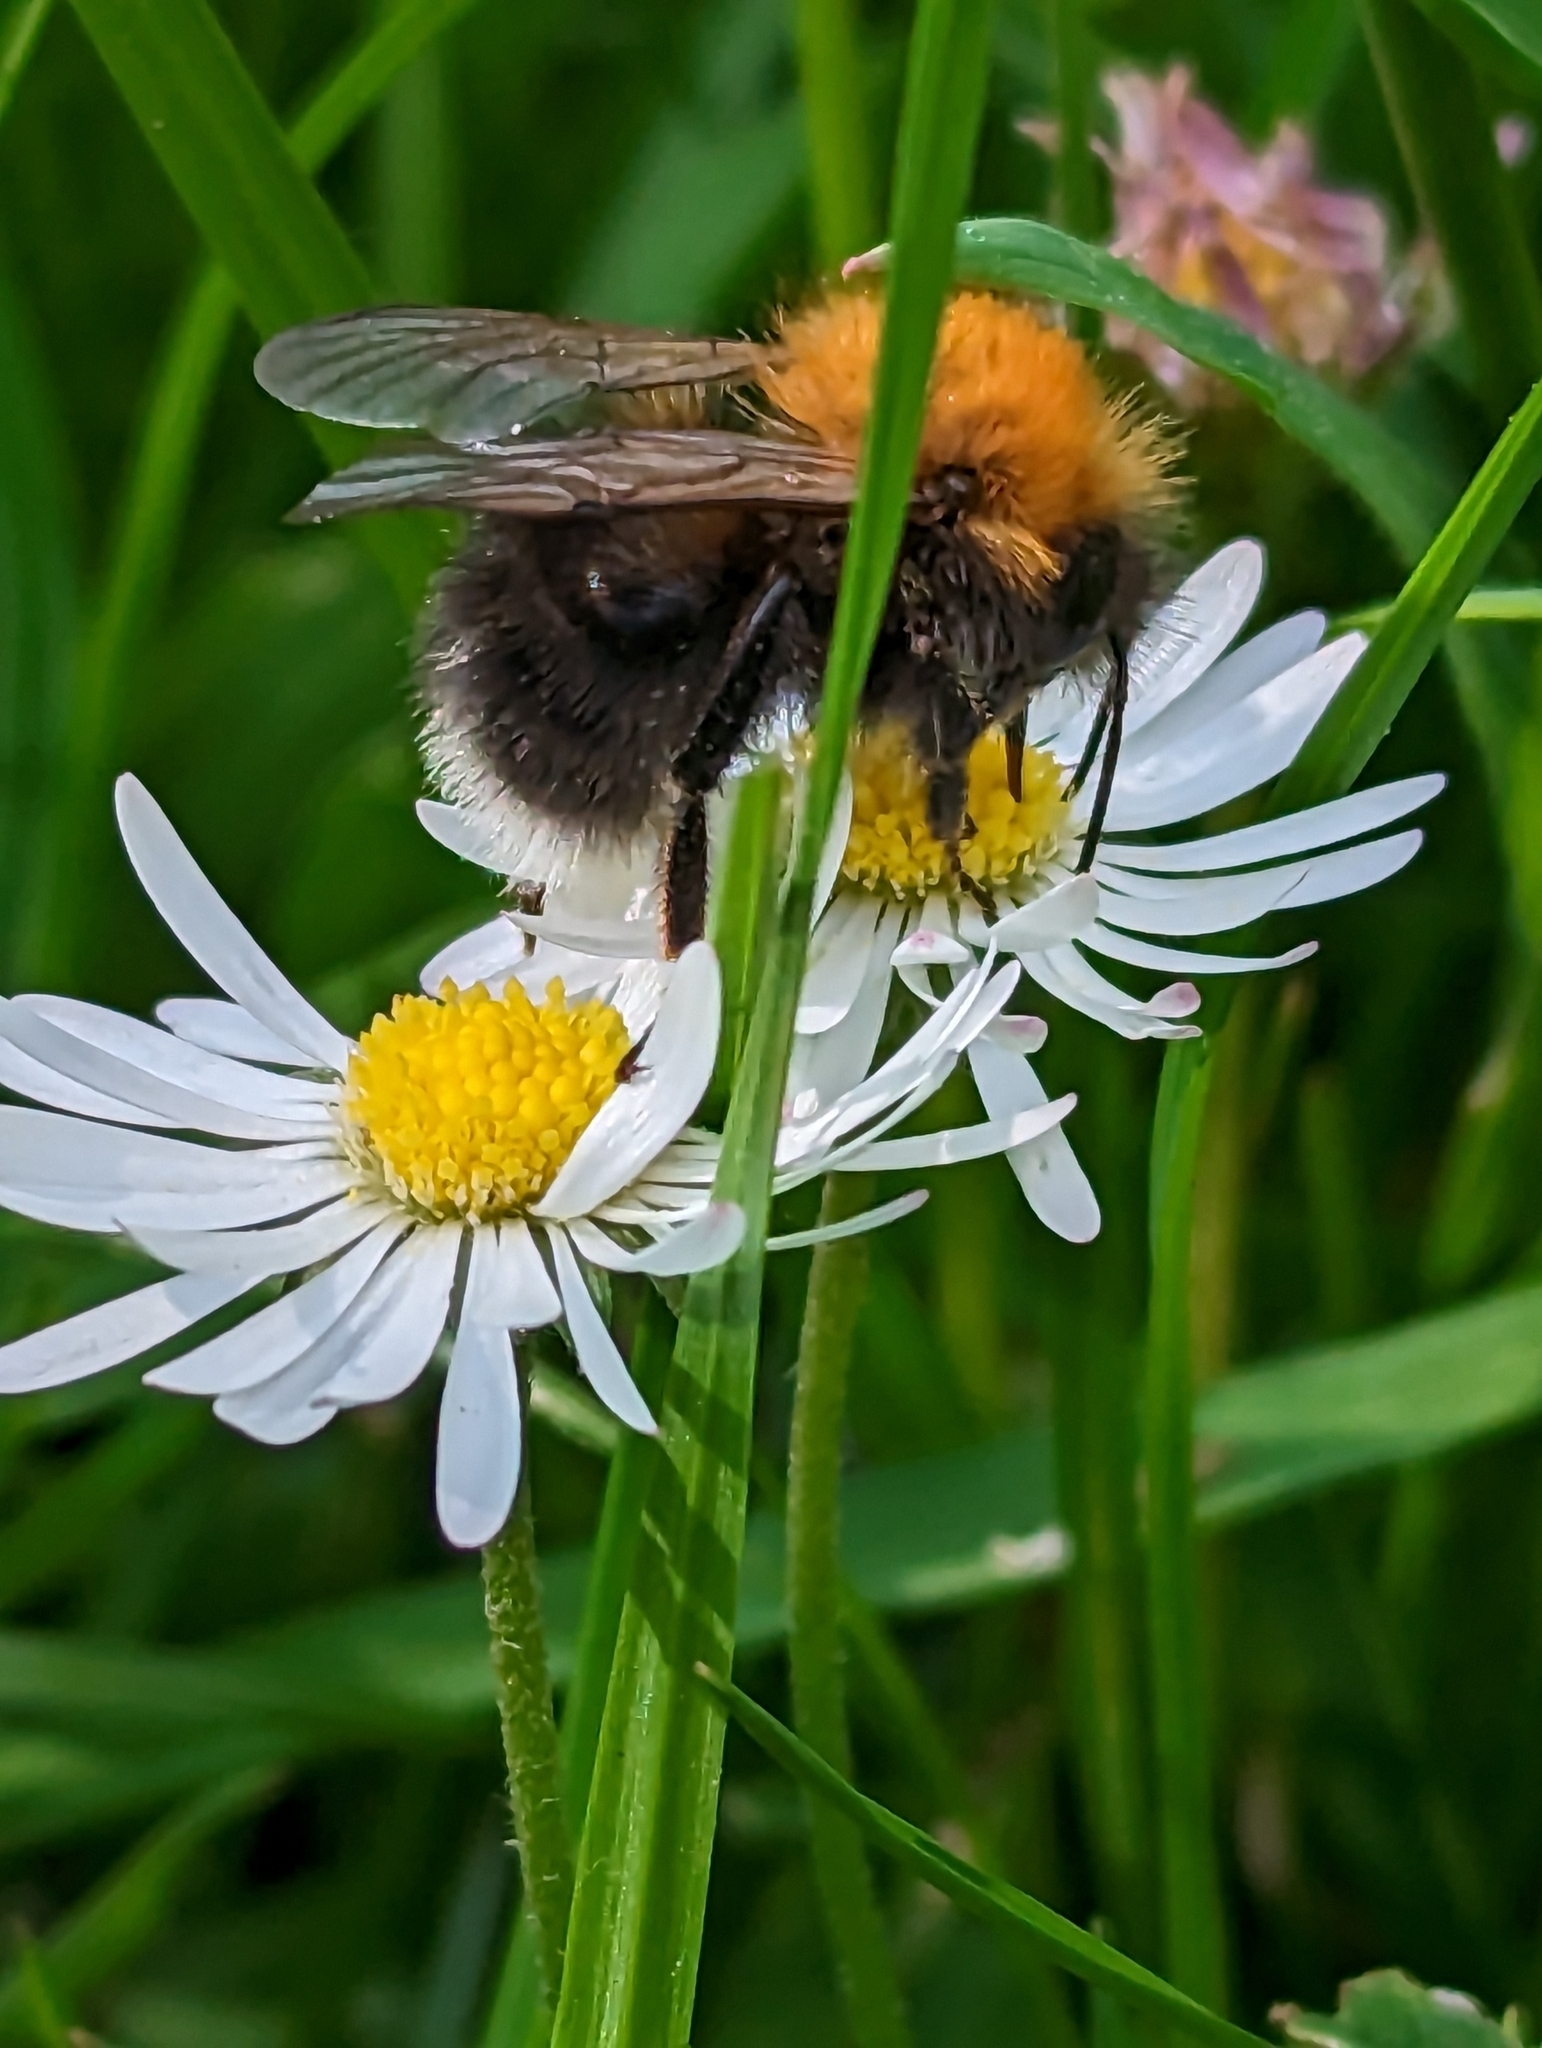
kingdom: Animalia
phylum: Arthropoda
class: Insecta
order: Hymenoptera
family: Apidae
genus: Bombus
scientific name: Bombus hypnorum
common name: New garden bumblebee
